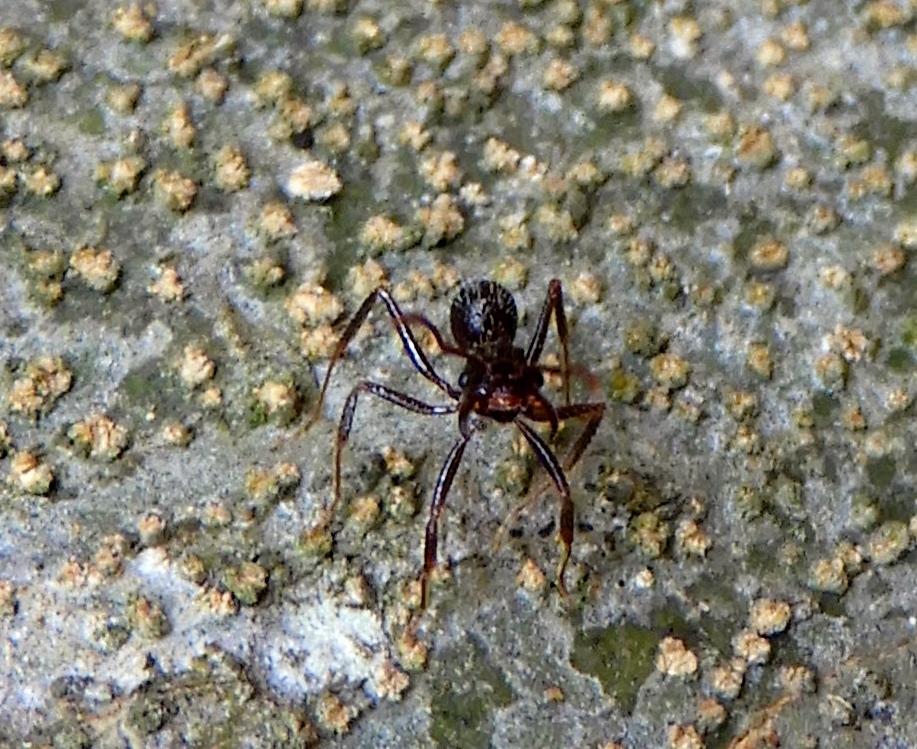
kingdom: Animalia
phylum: Arthropoda
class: Insecta
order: Hymenoptera
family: Formicidae
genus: Ectatomma
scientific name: Ectatomma ruidum
